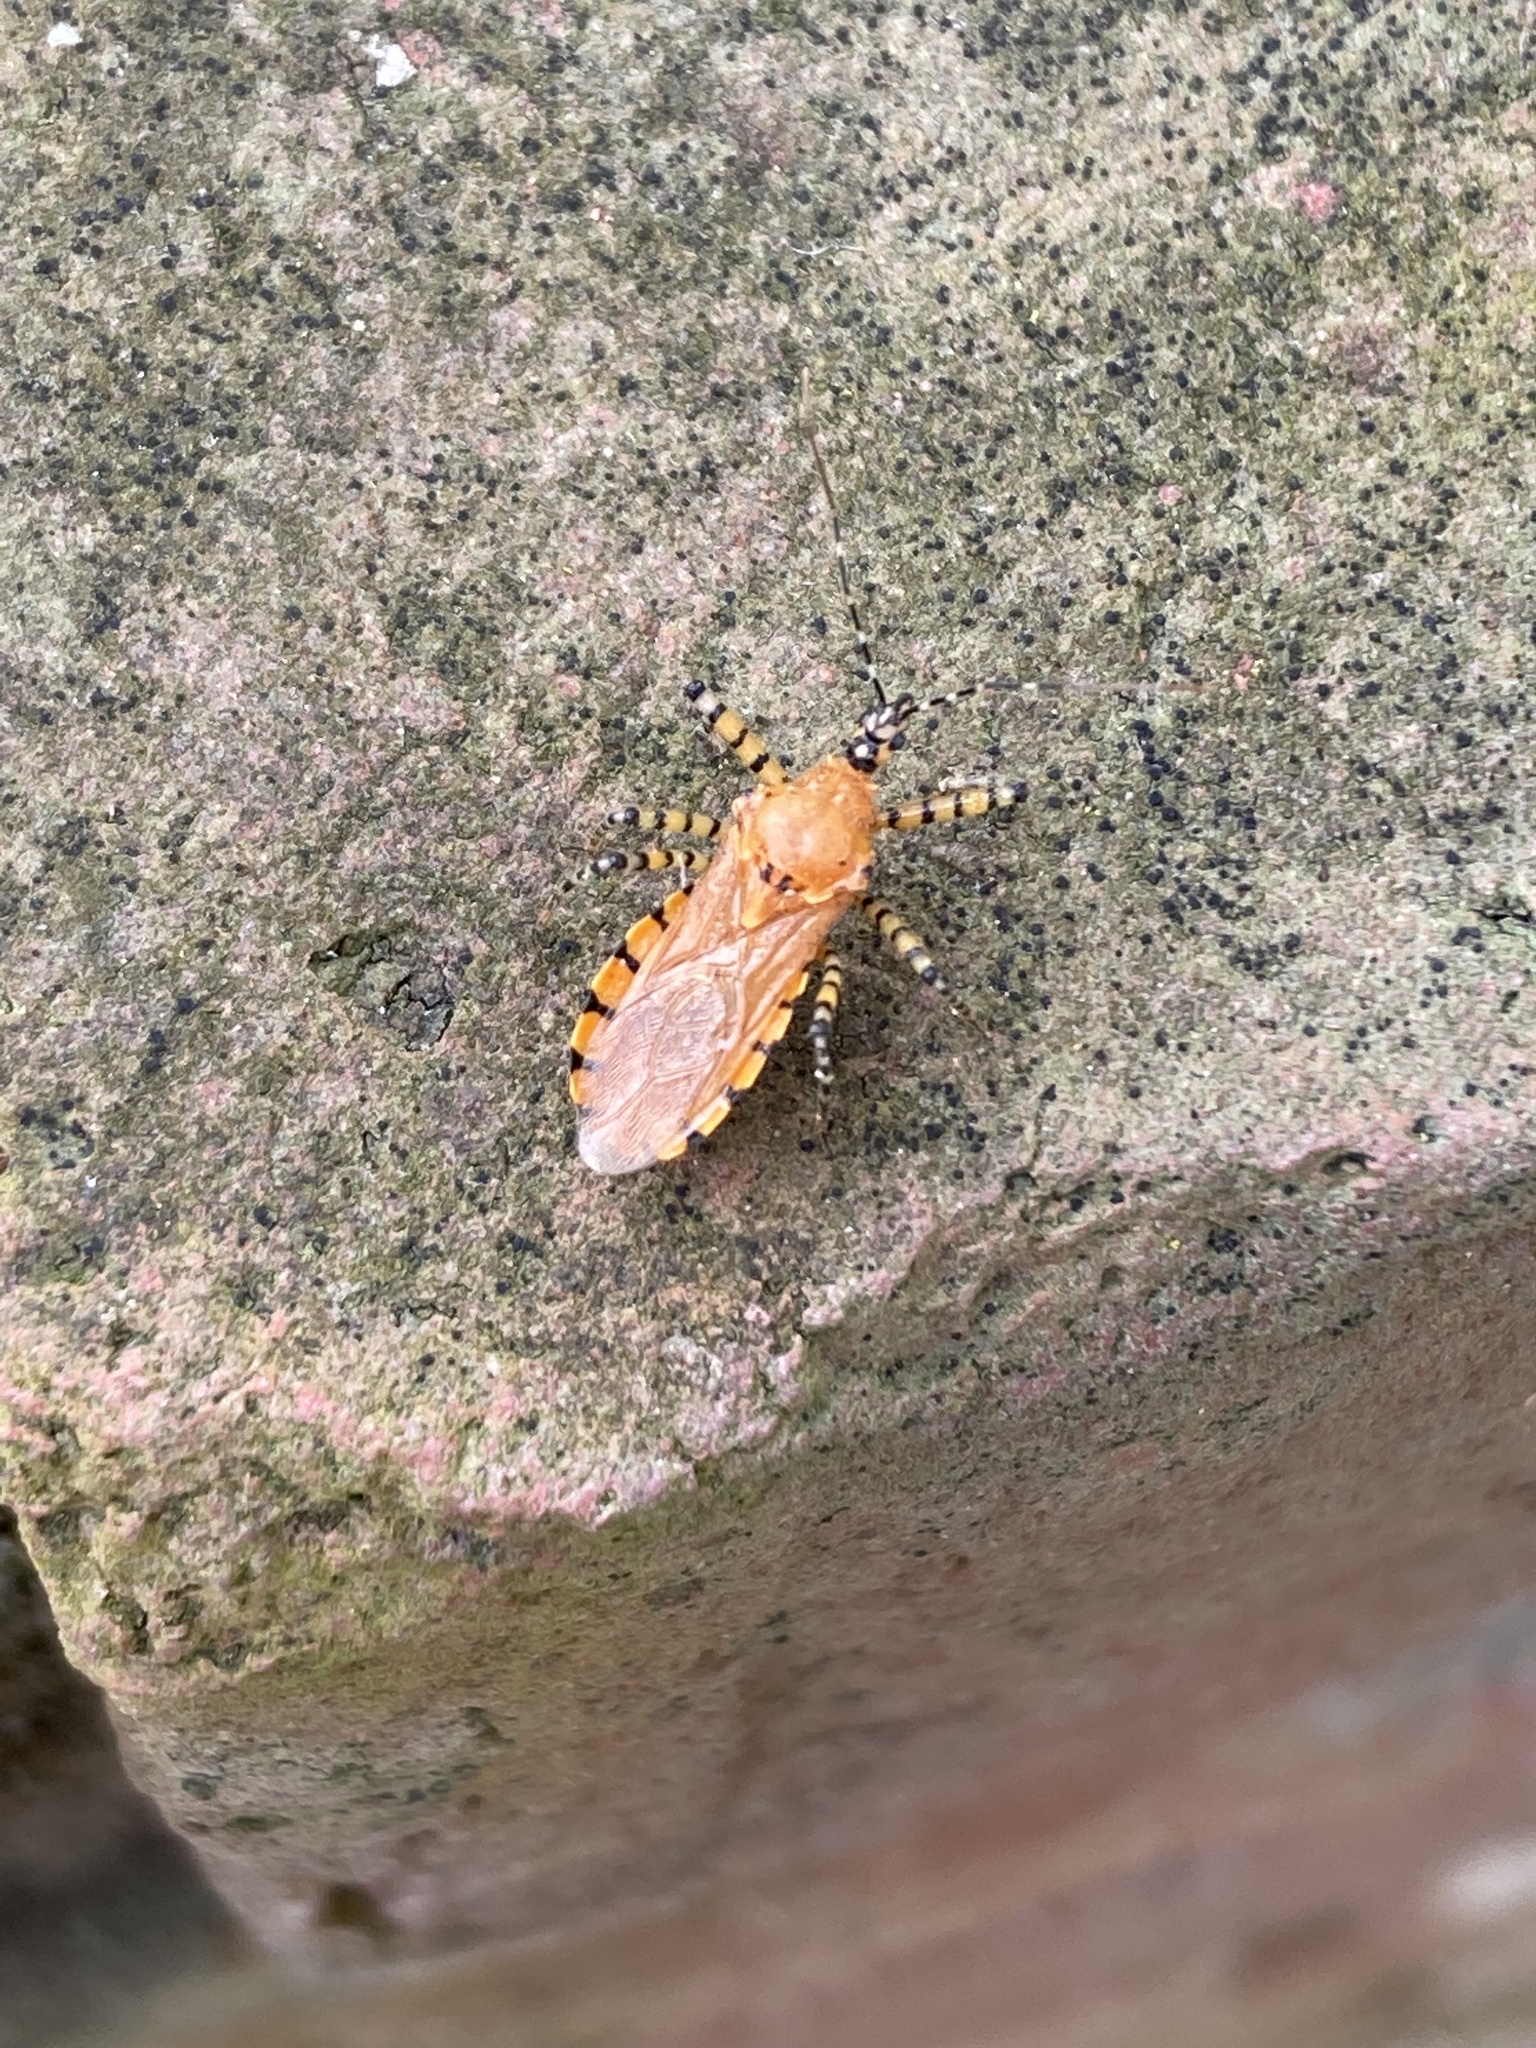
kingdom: Animalia
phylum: Arthropoda
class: Insecta
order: Hemiptera
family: Reduviidae
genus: Pselliopus
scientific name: Pselliopus barberi
